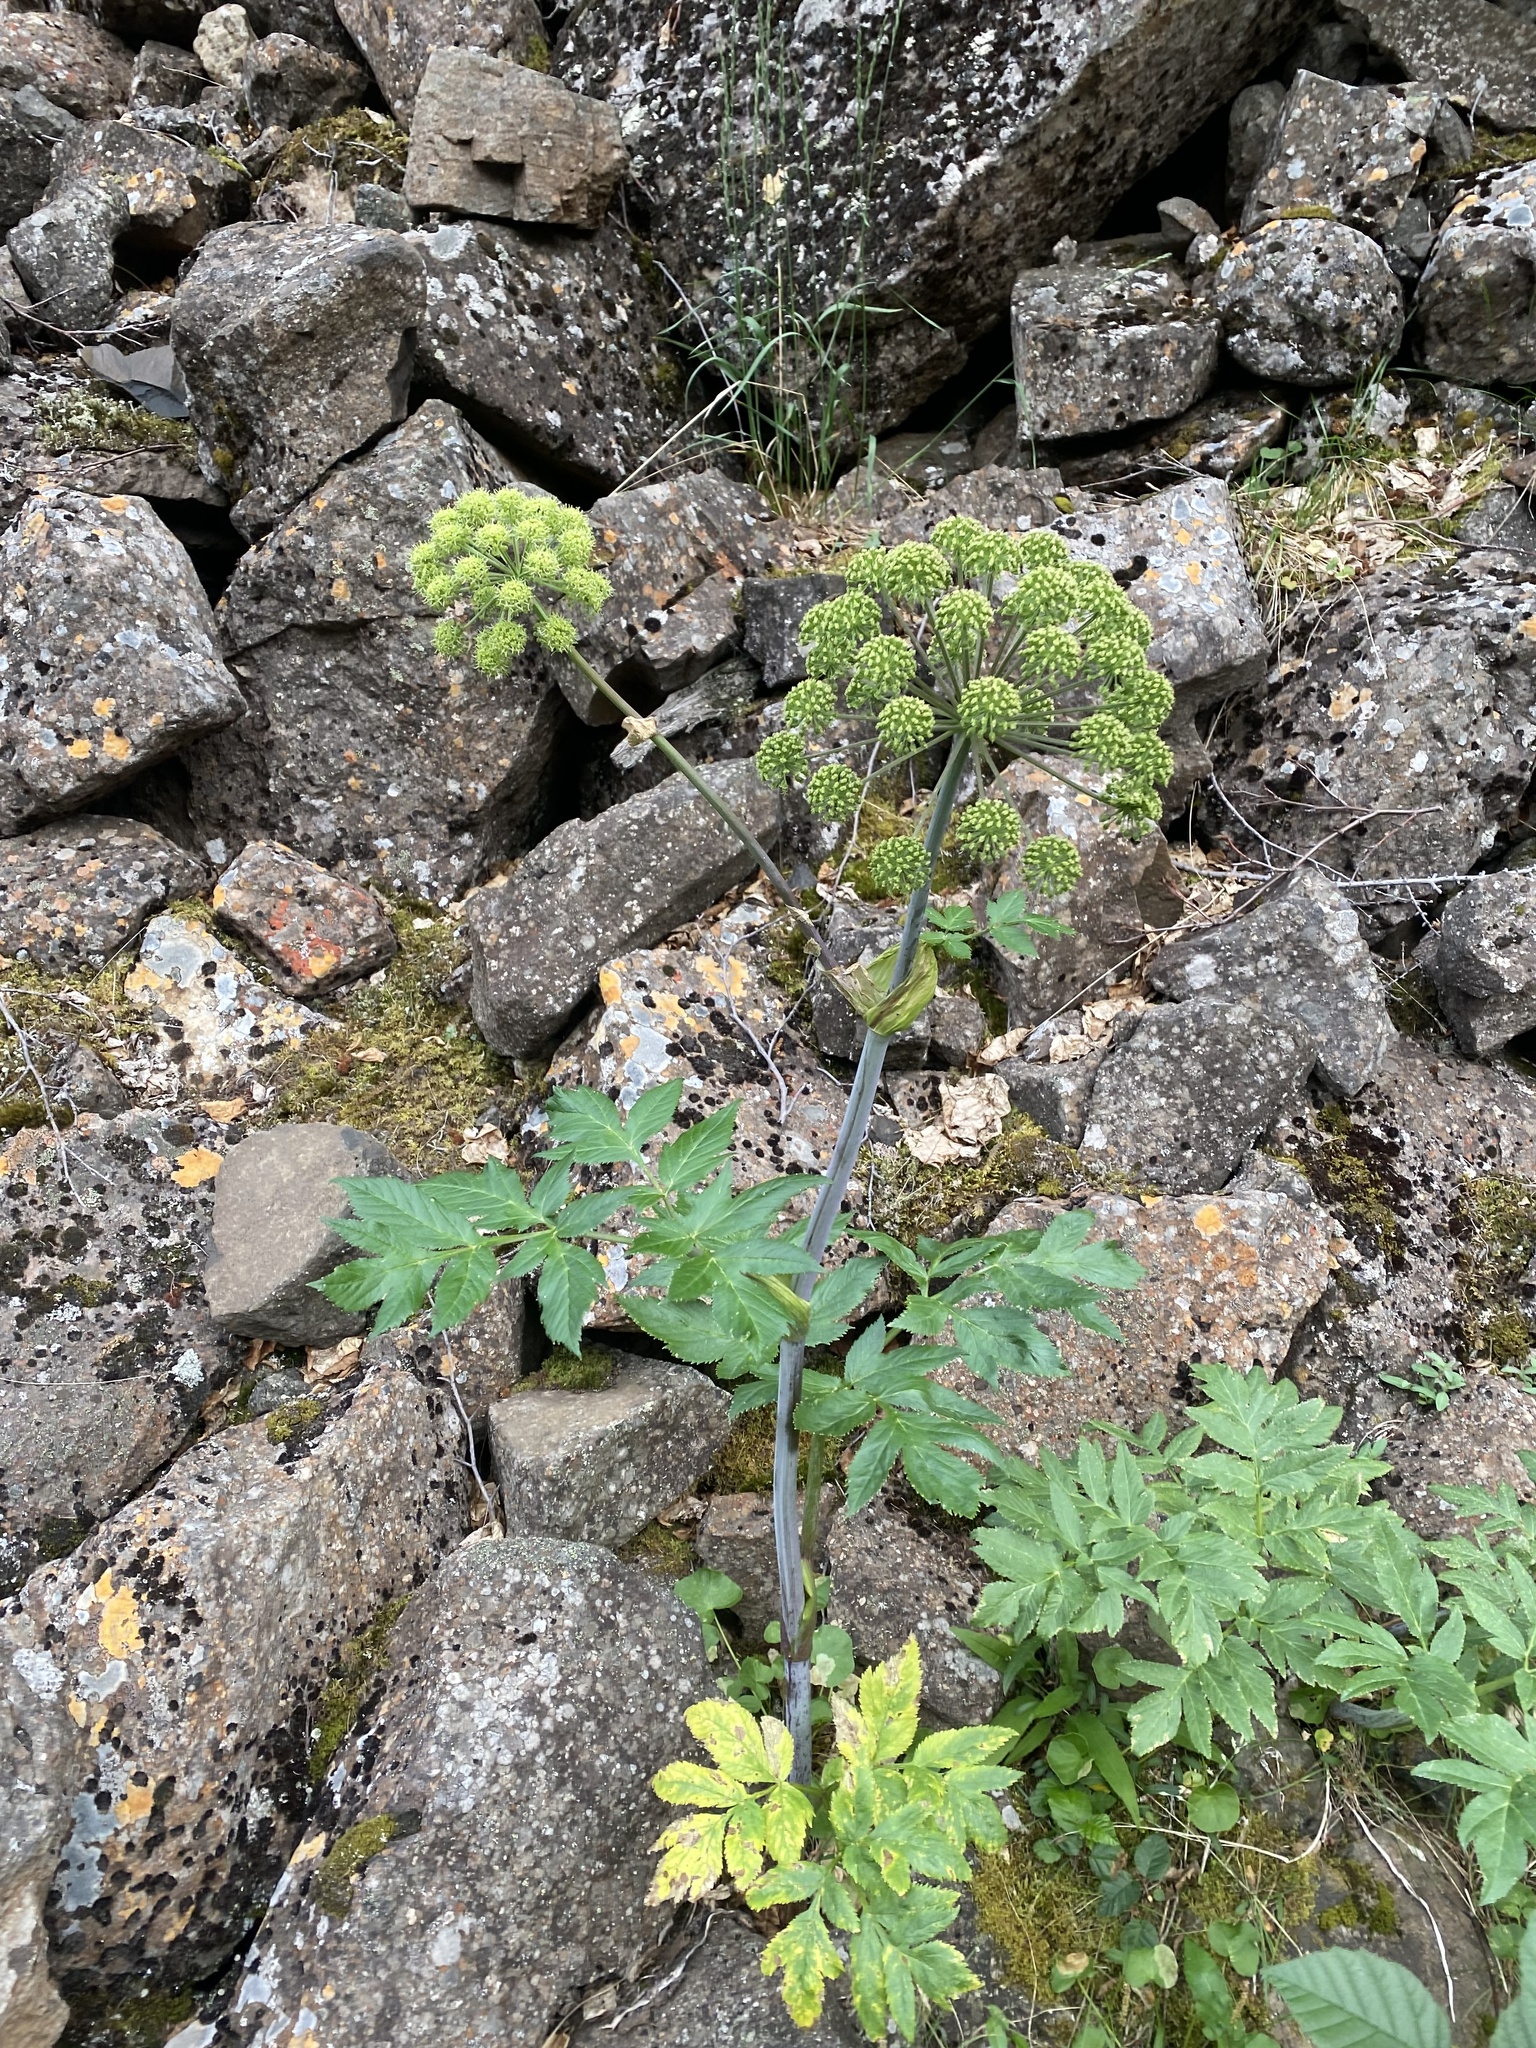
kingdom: Plantae
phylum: Tracheophyta
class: Magnoliopsida
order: Apiales
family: Apiaceae
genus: Angelica
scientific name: Angelica decurrens
